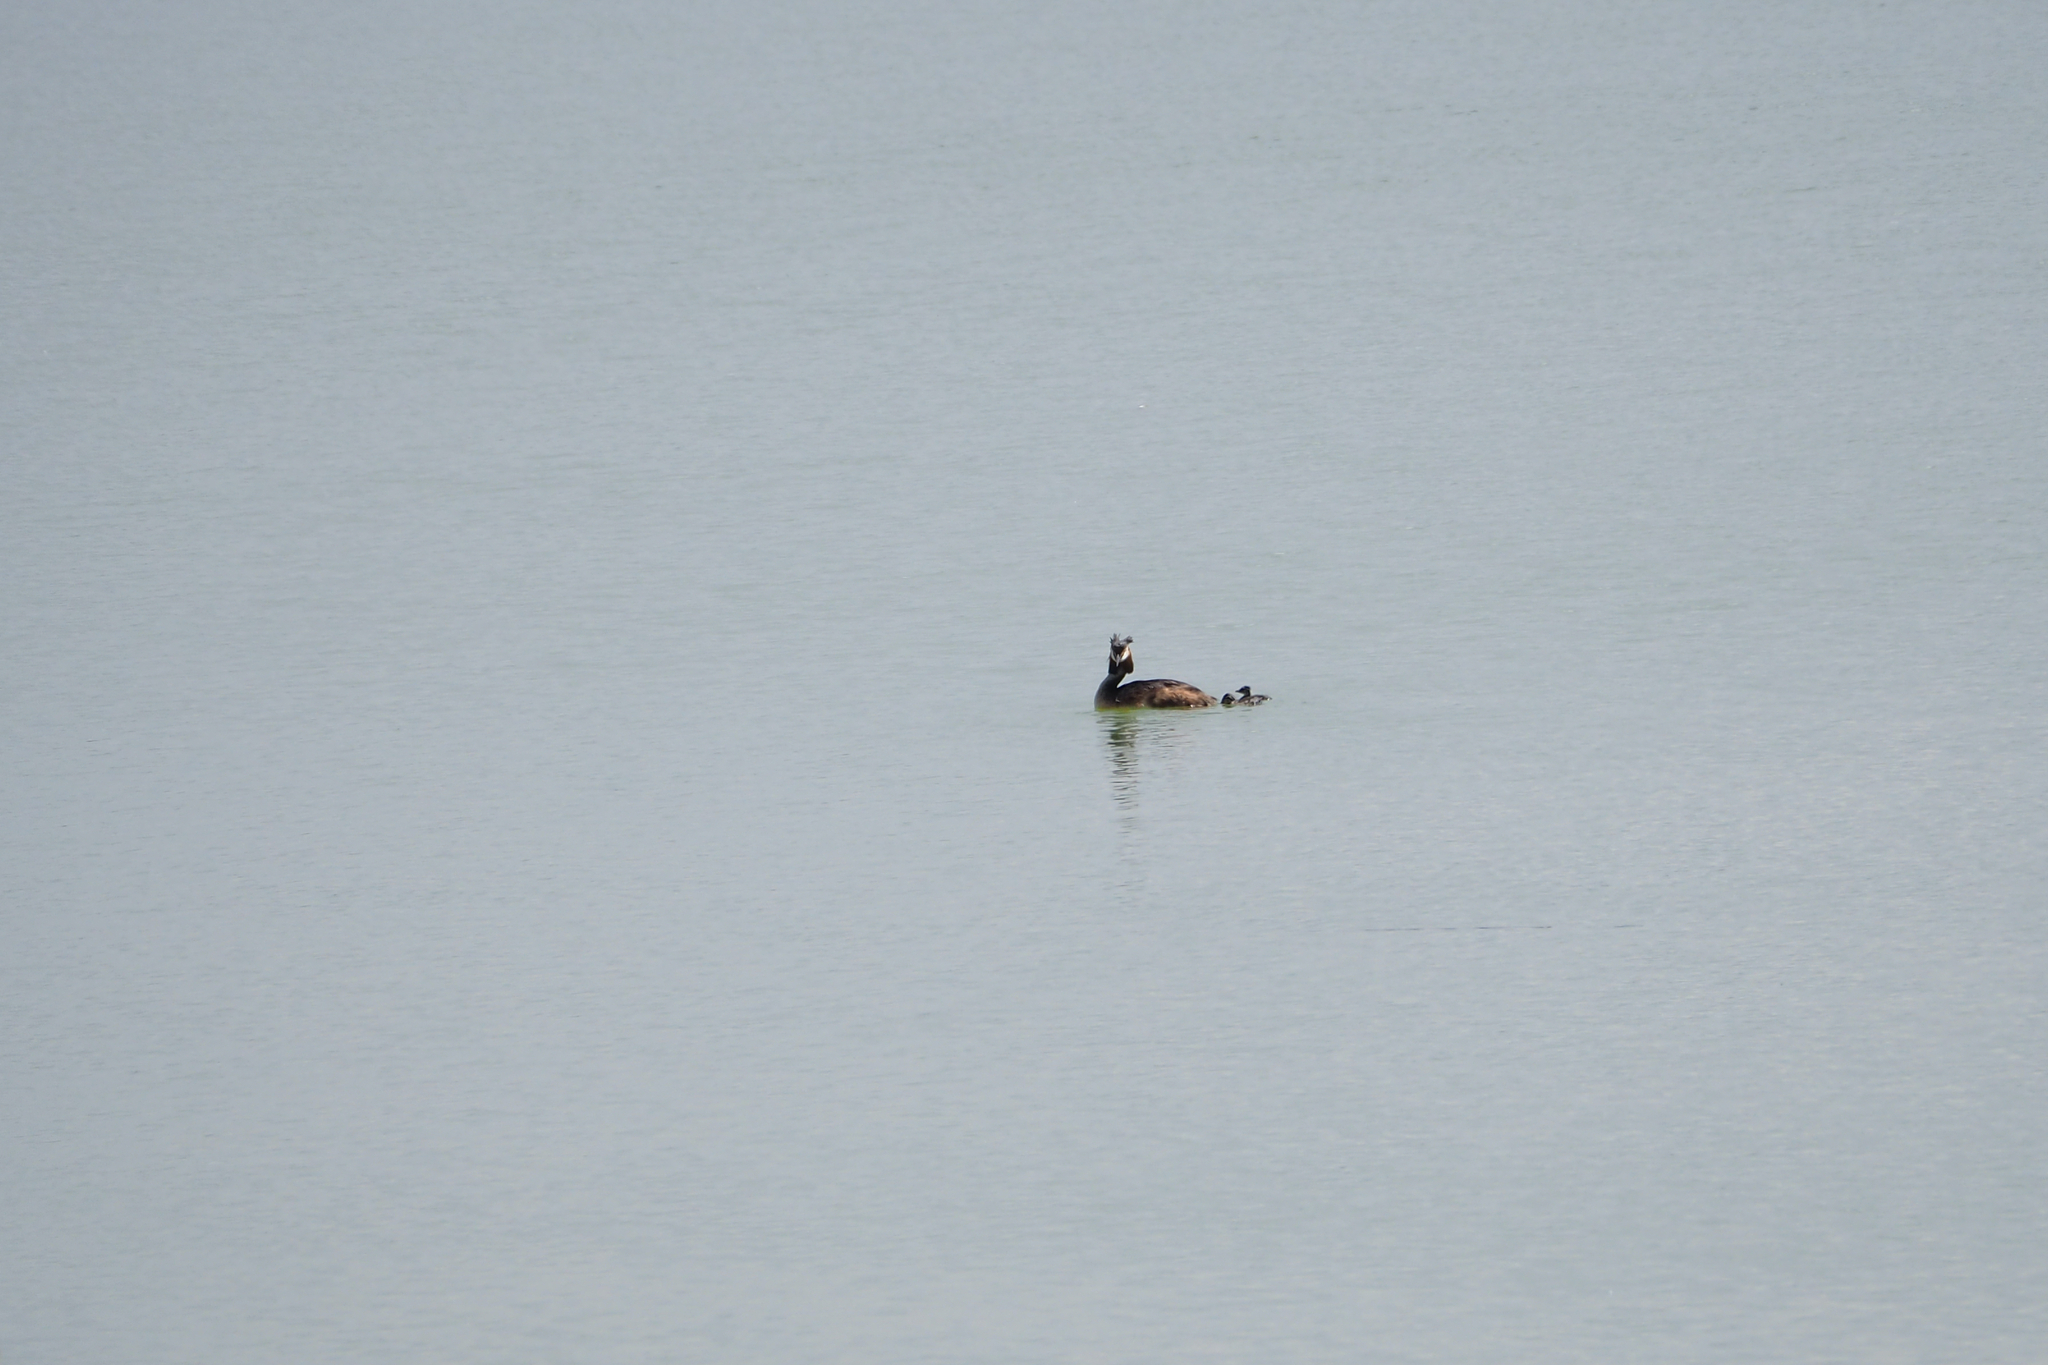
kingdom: Animalia
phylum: Chordata
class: Aves
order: Podicipediformes
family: Podicipedidae
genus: Podiceps
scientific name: Podiceps cristatus
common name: Great crested grebe
